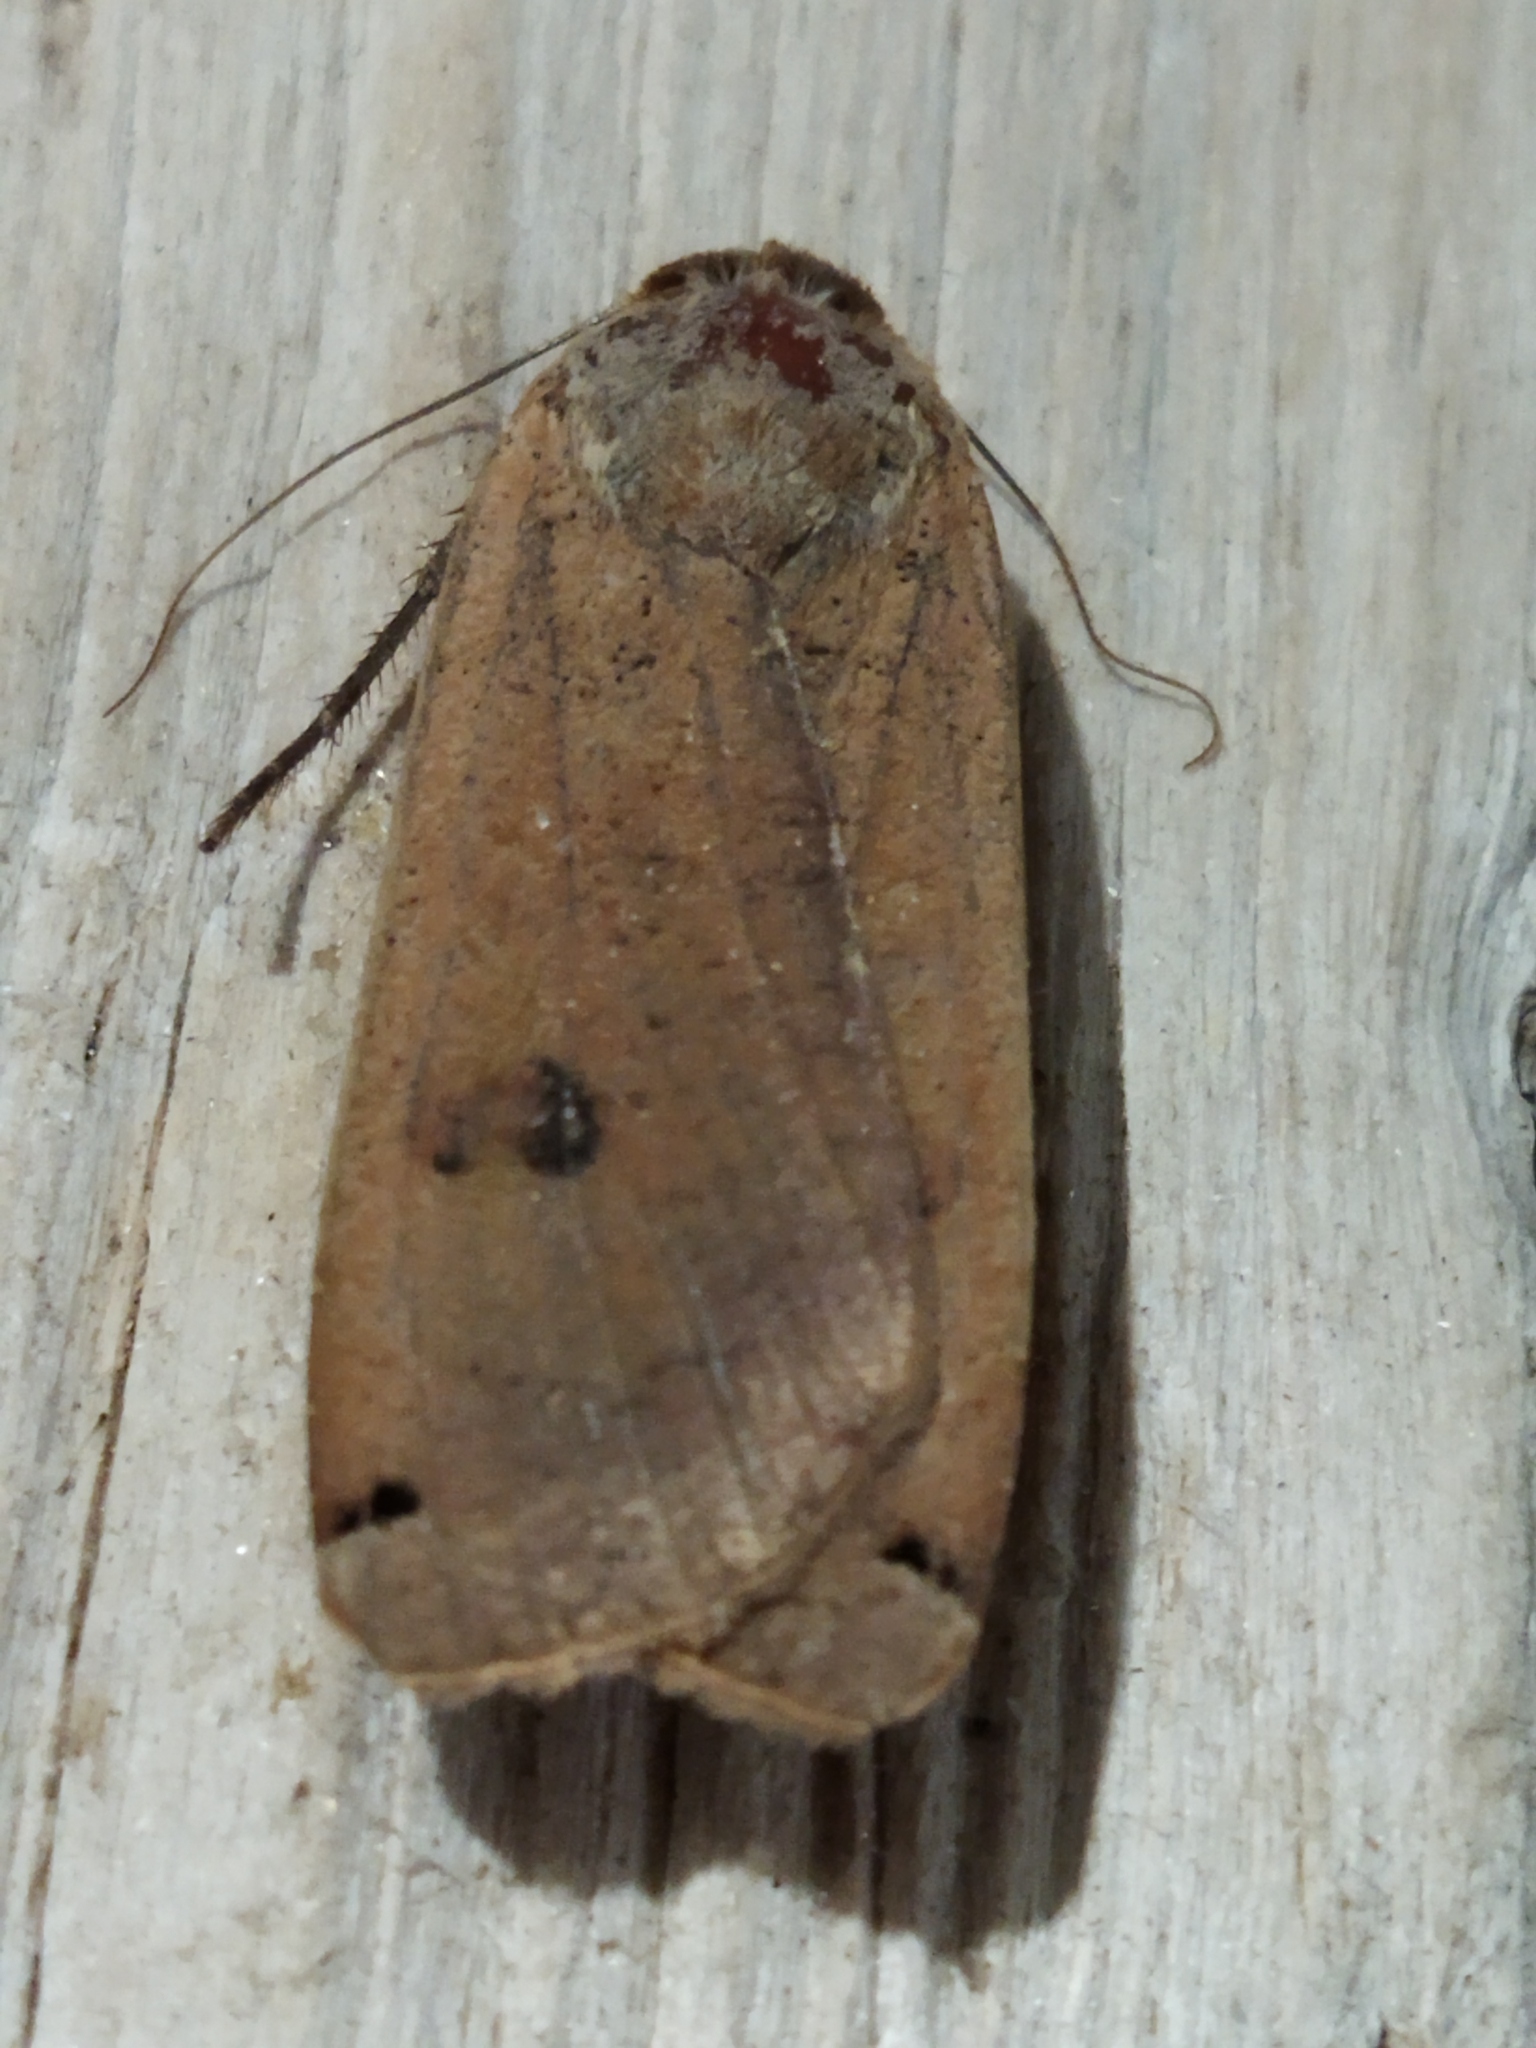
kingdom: Animalia
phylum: Arthropoda
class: Insecta
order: Lepidoptera
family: Noctuidae
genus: Noctua
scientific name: Noctua pronuba
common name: Large yellow underwing
